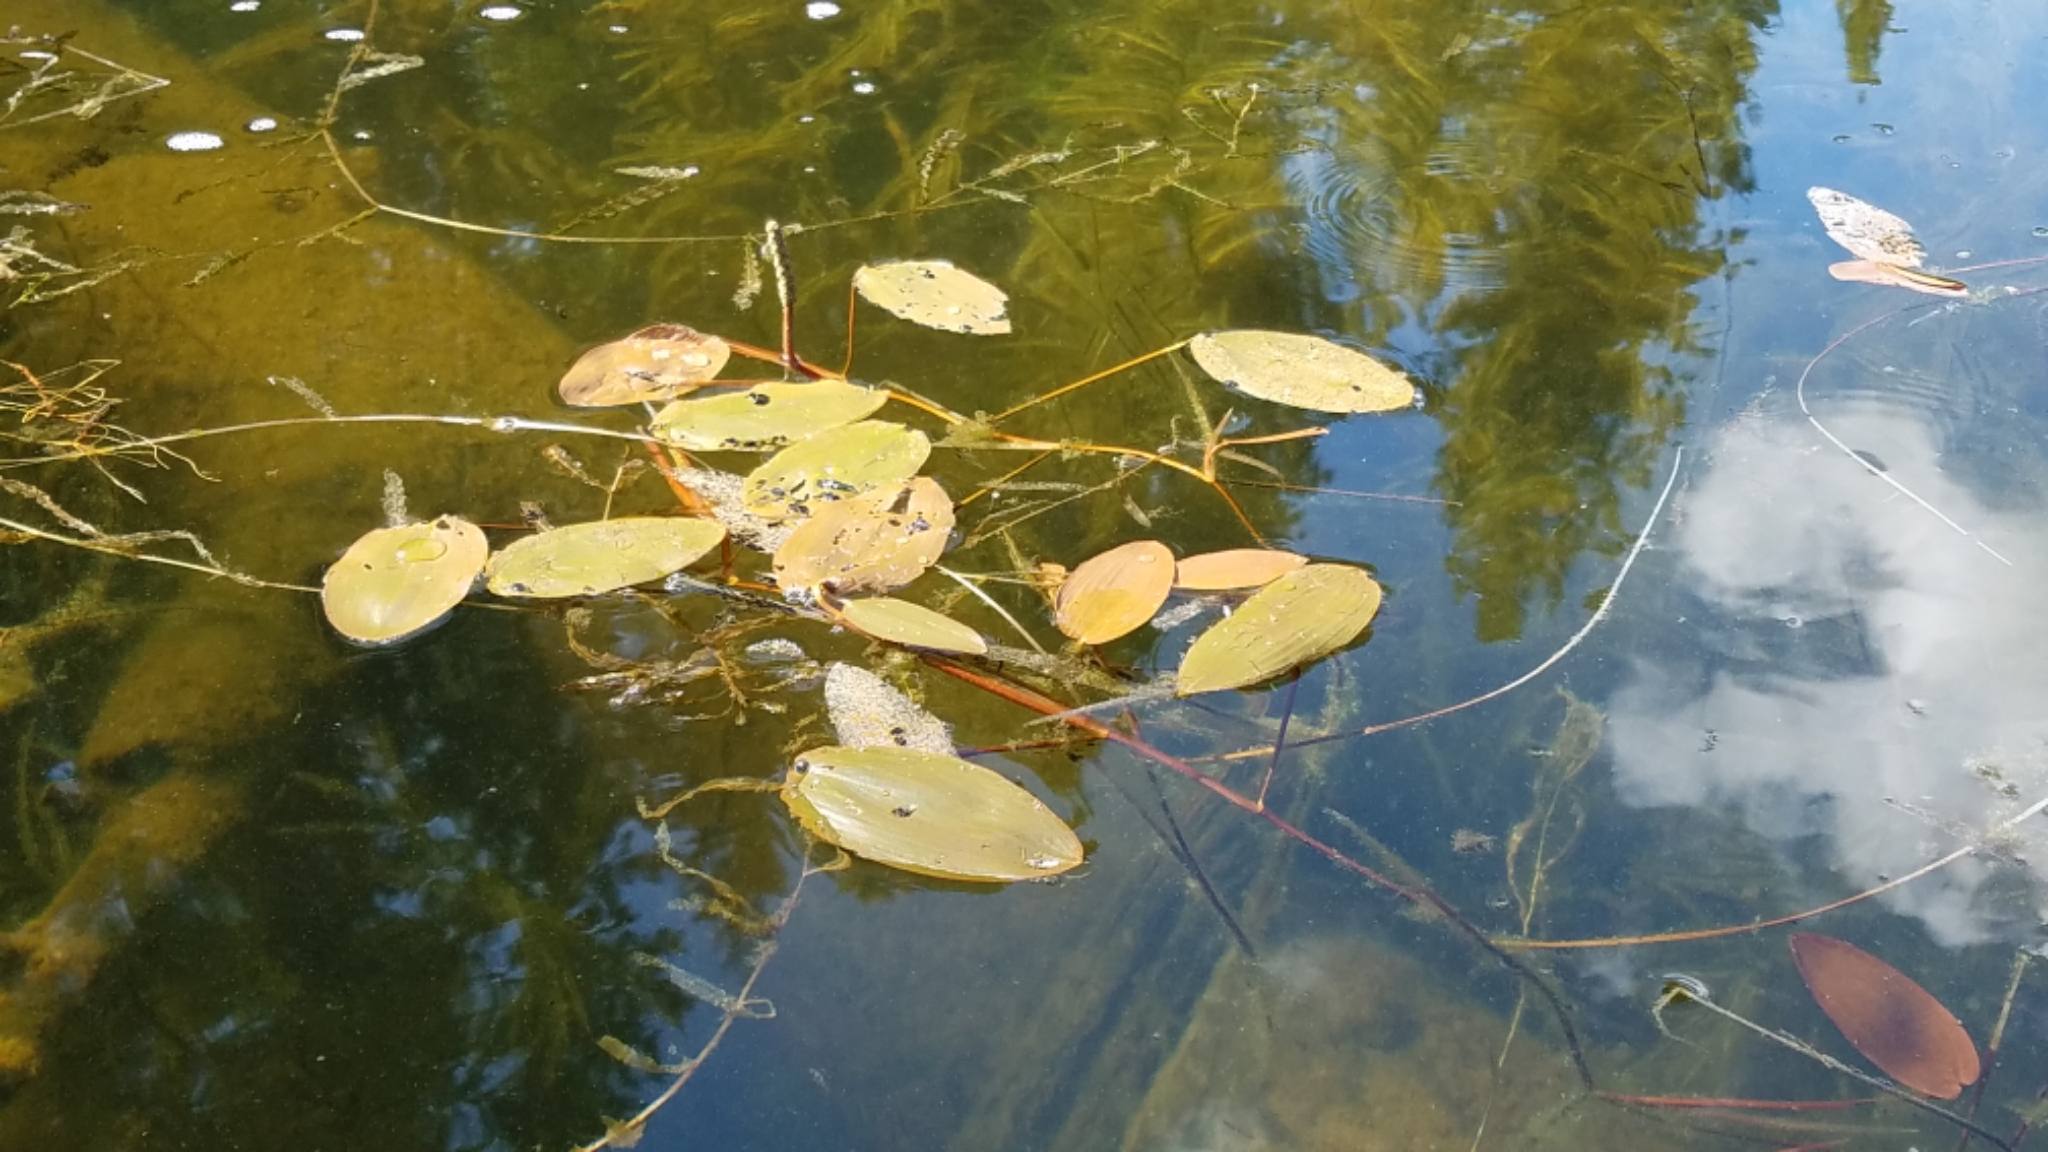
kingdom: Plantae
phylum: Tracheophyta
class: Liliopsida
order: Alismatales
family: Potamogetonaceae
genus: Potamogeton
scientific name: Potamogeton natans
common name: Broad-leaved pondweed
